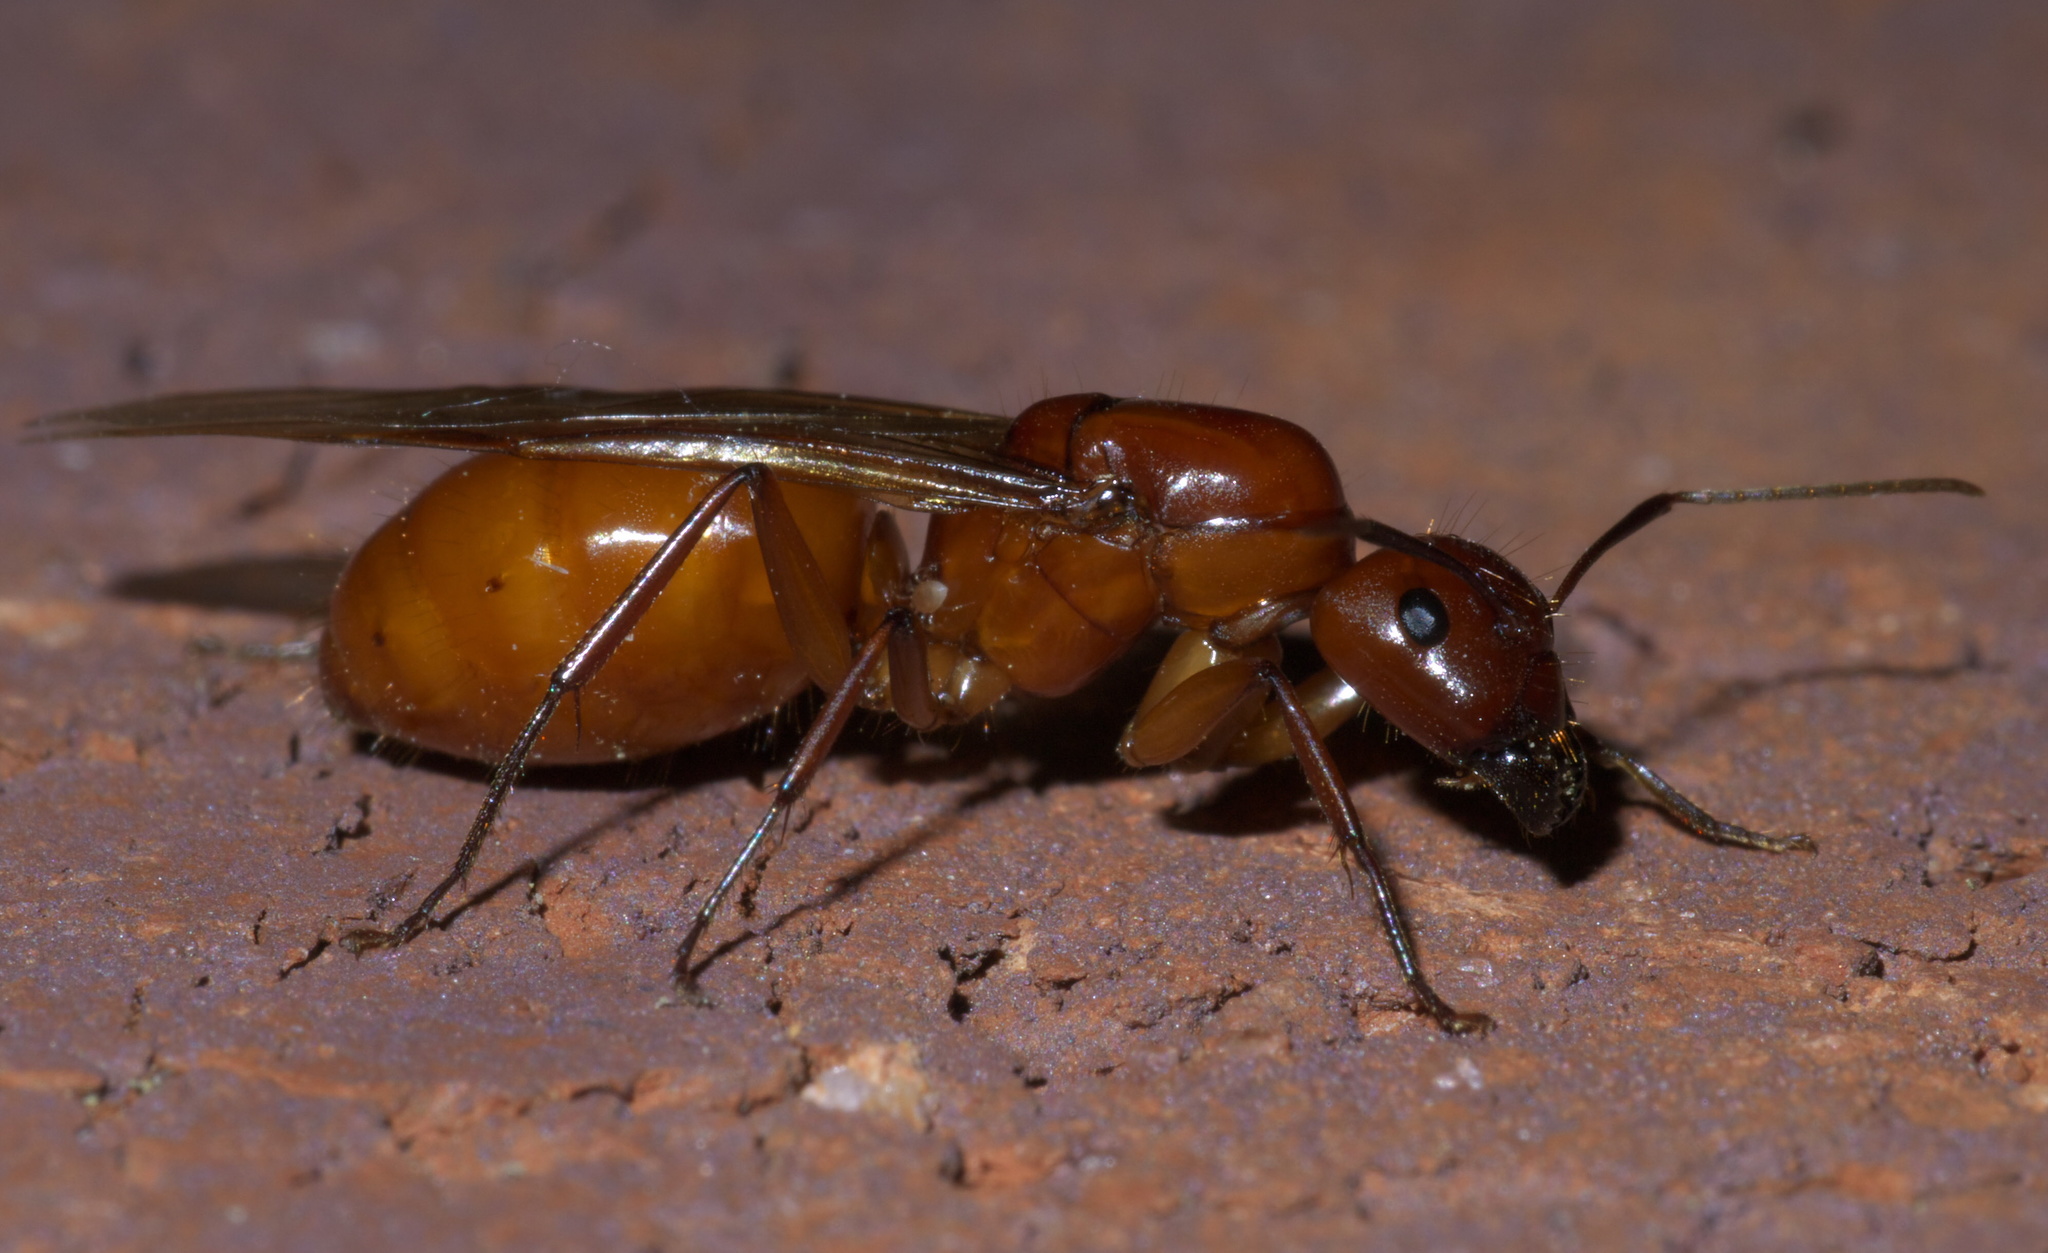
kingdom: Animalia
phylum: Arthropoda
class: Insecta
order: Hymenoptera
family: Formicidae
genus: Camponotus
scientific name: Camponotus castaneus
